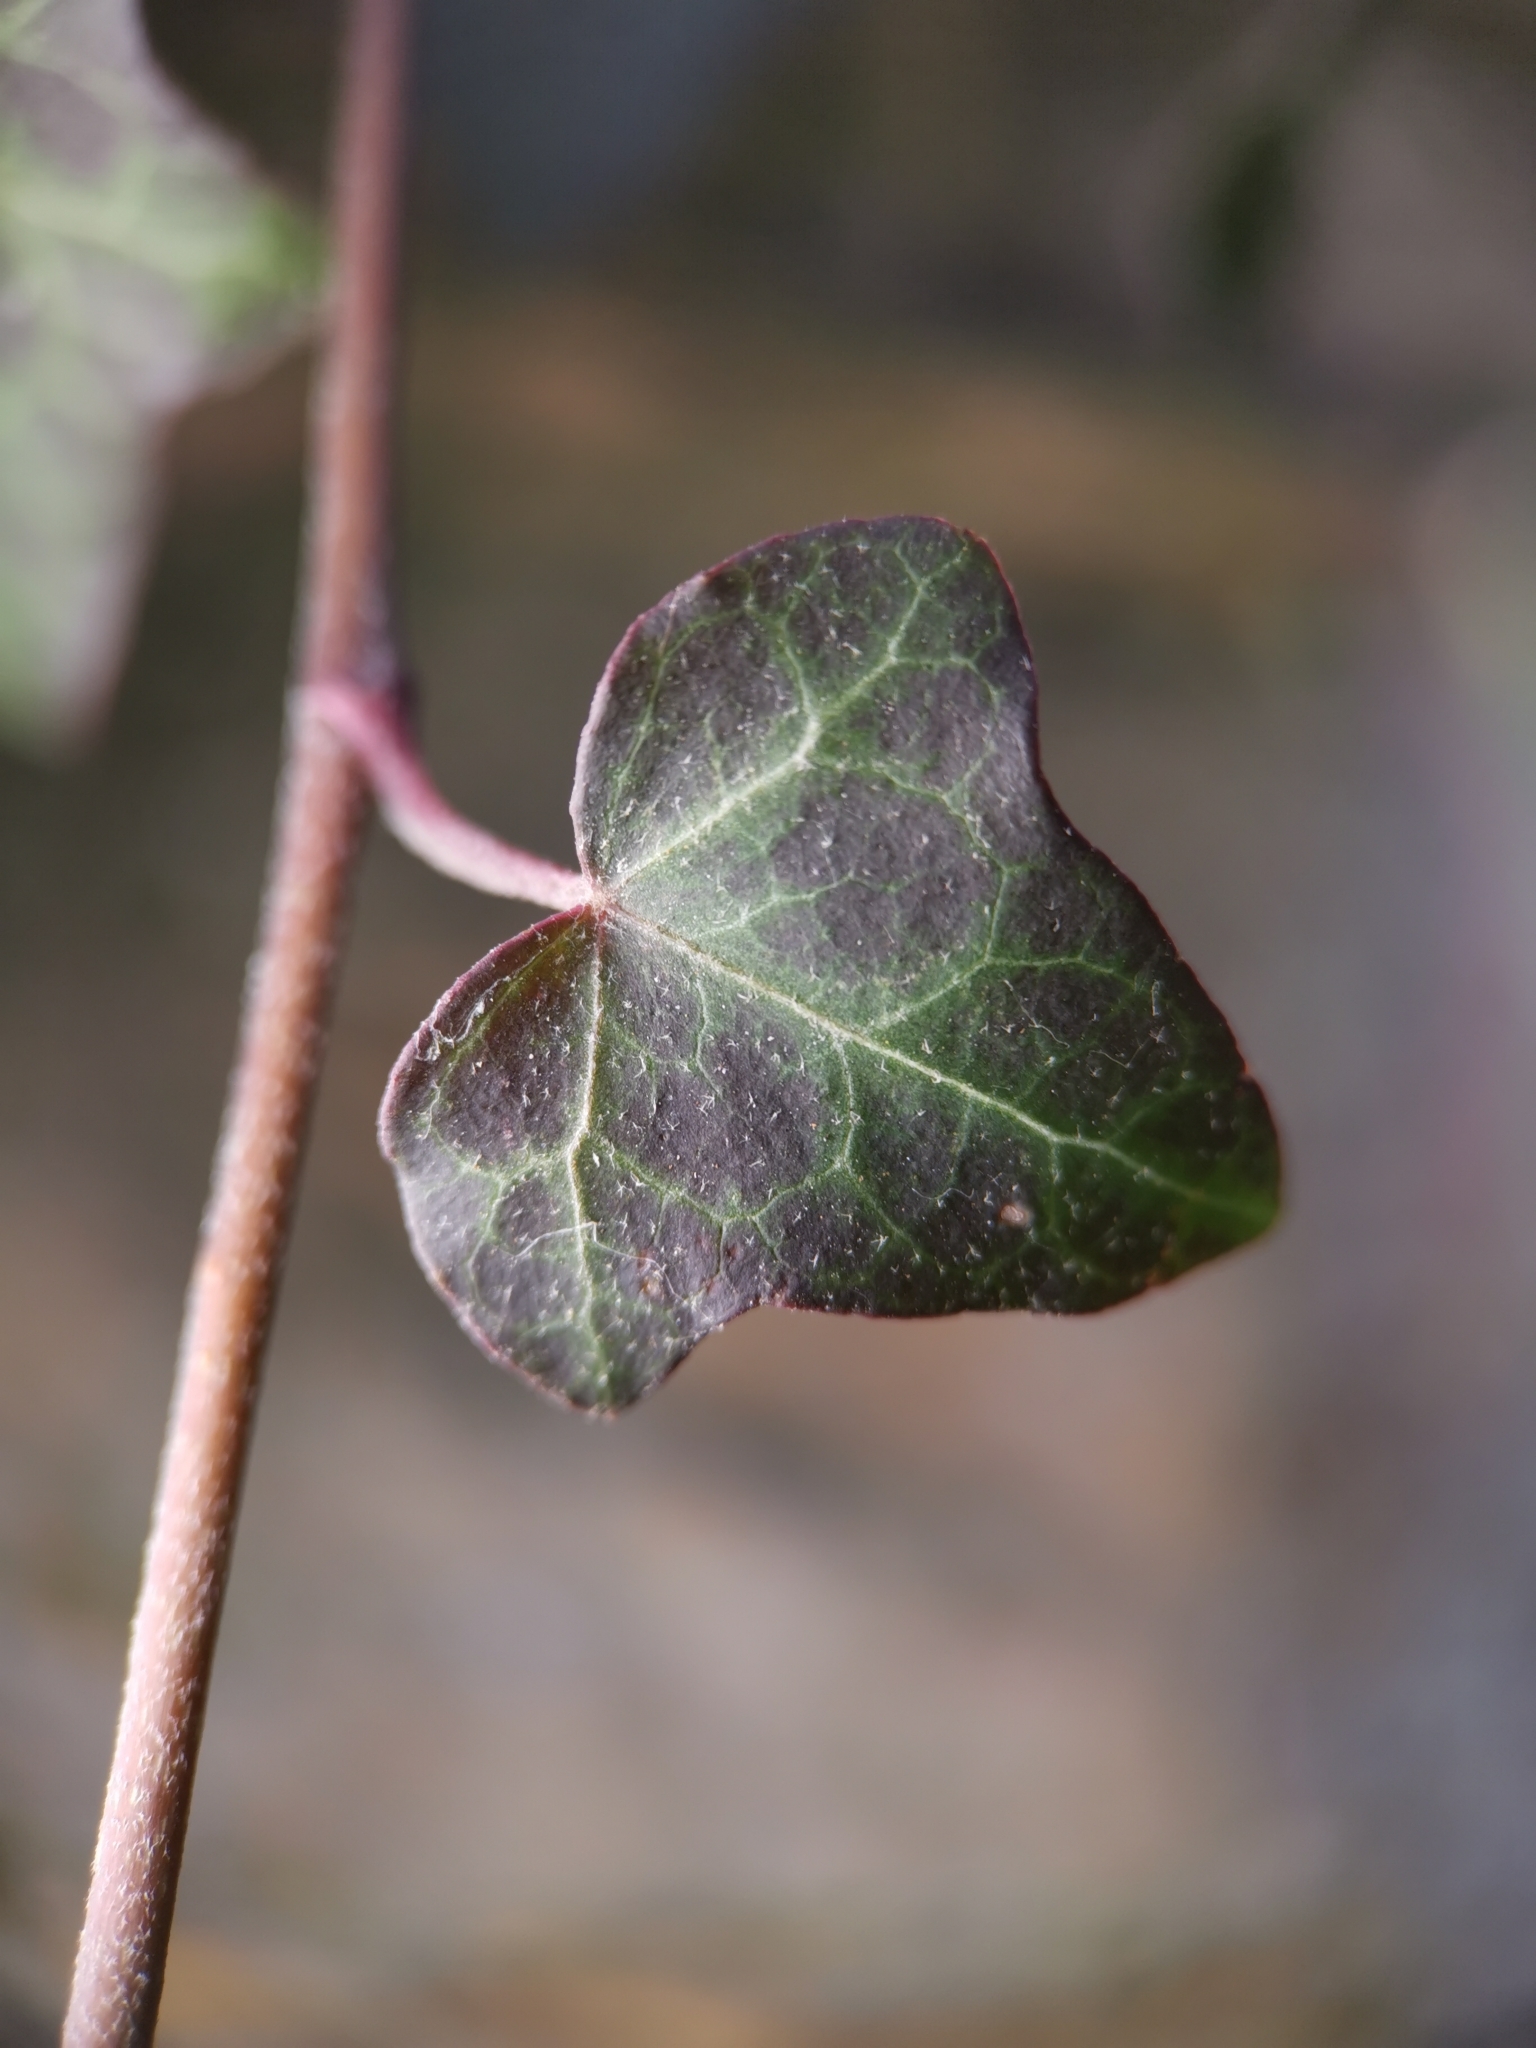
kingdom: Plantae
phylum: Tracheophyta
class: Magnoliopsida
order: Apiales
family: Araliaceae
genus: Hedera
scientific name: Hedera helix
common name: Ivy
